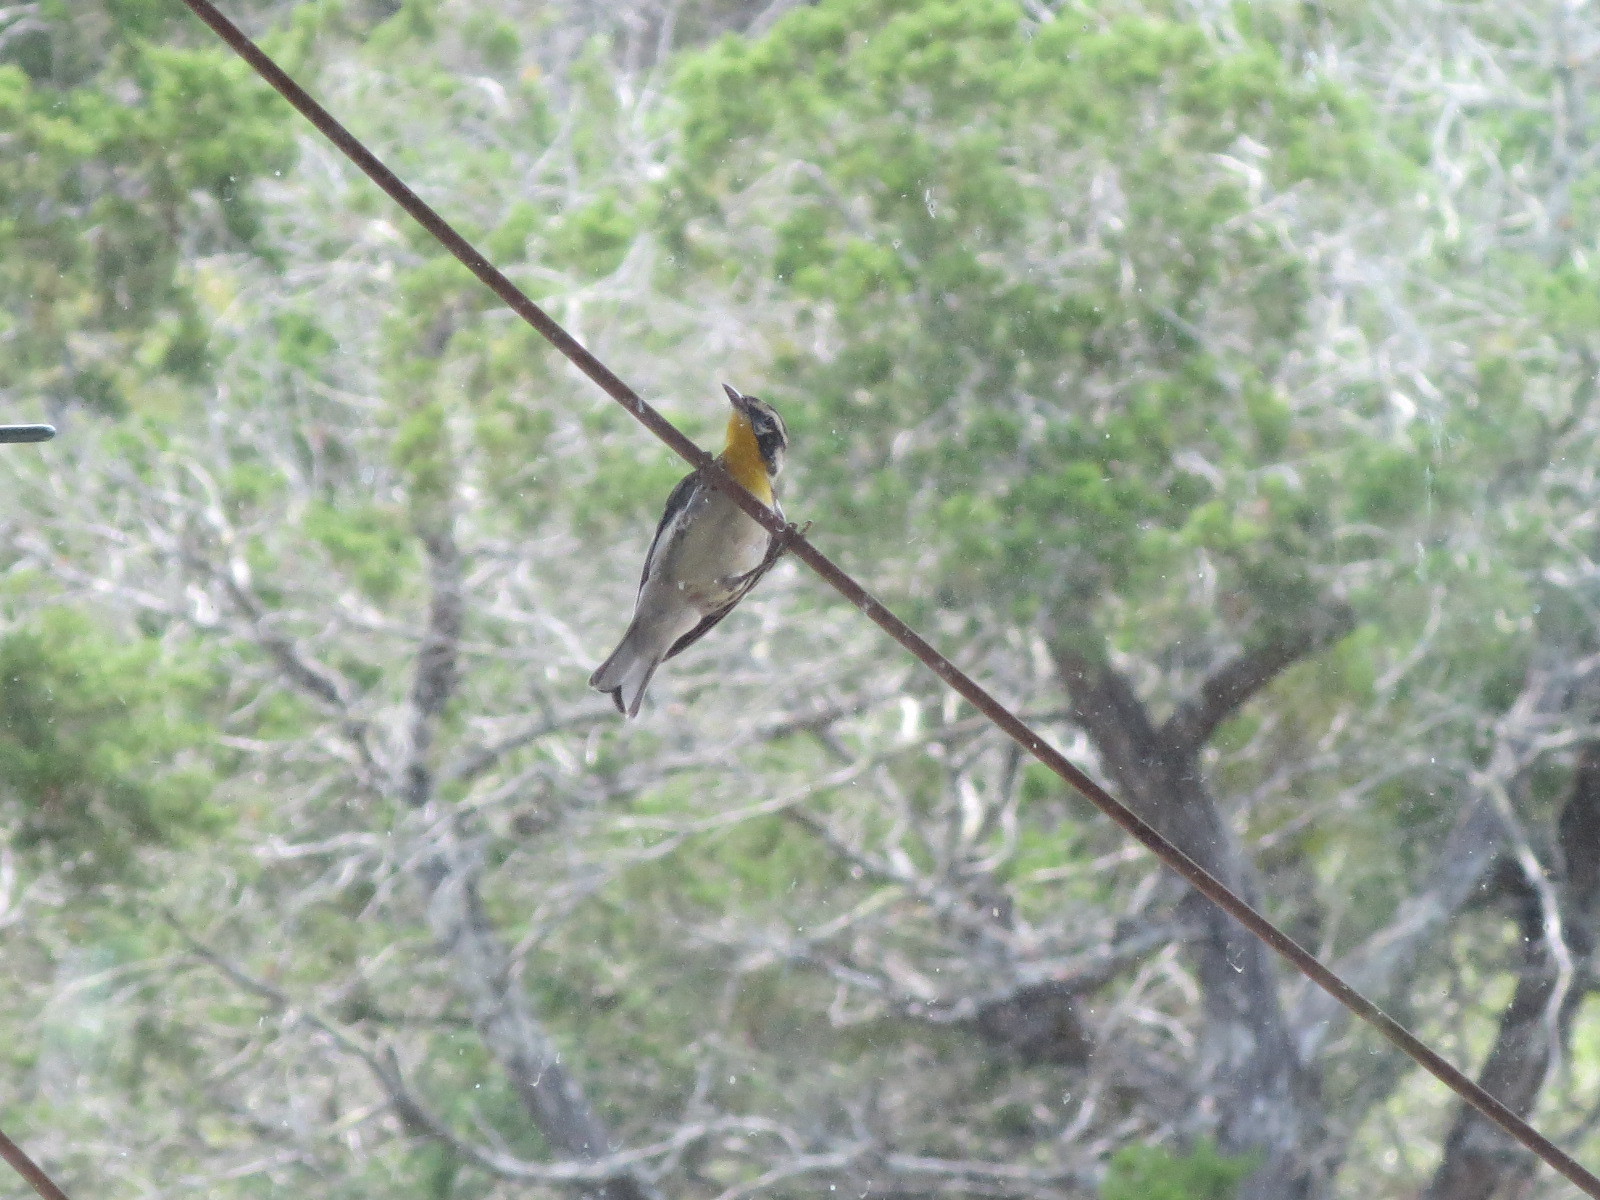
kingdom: Animalia
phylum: Chordata
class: Aves
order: Passeriformes
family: Parulidae
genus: Setophaga
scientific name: Setophaga dominica
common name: Yellow-throated warbler
